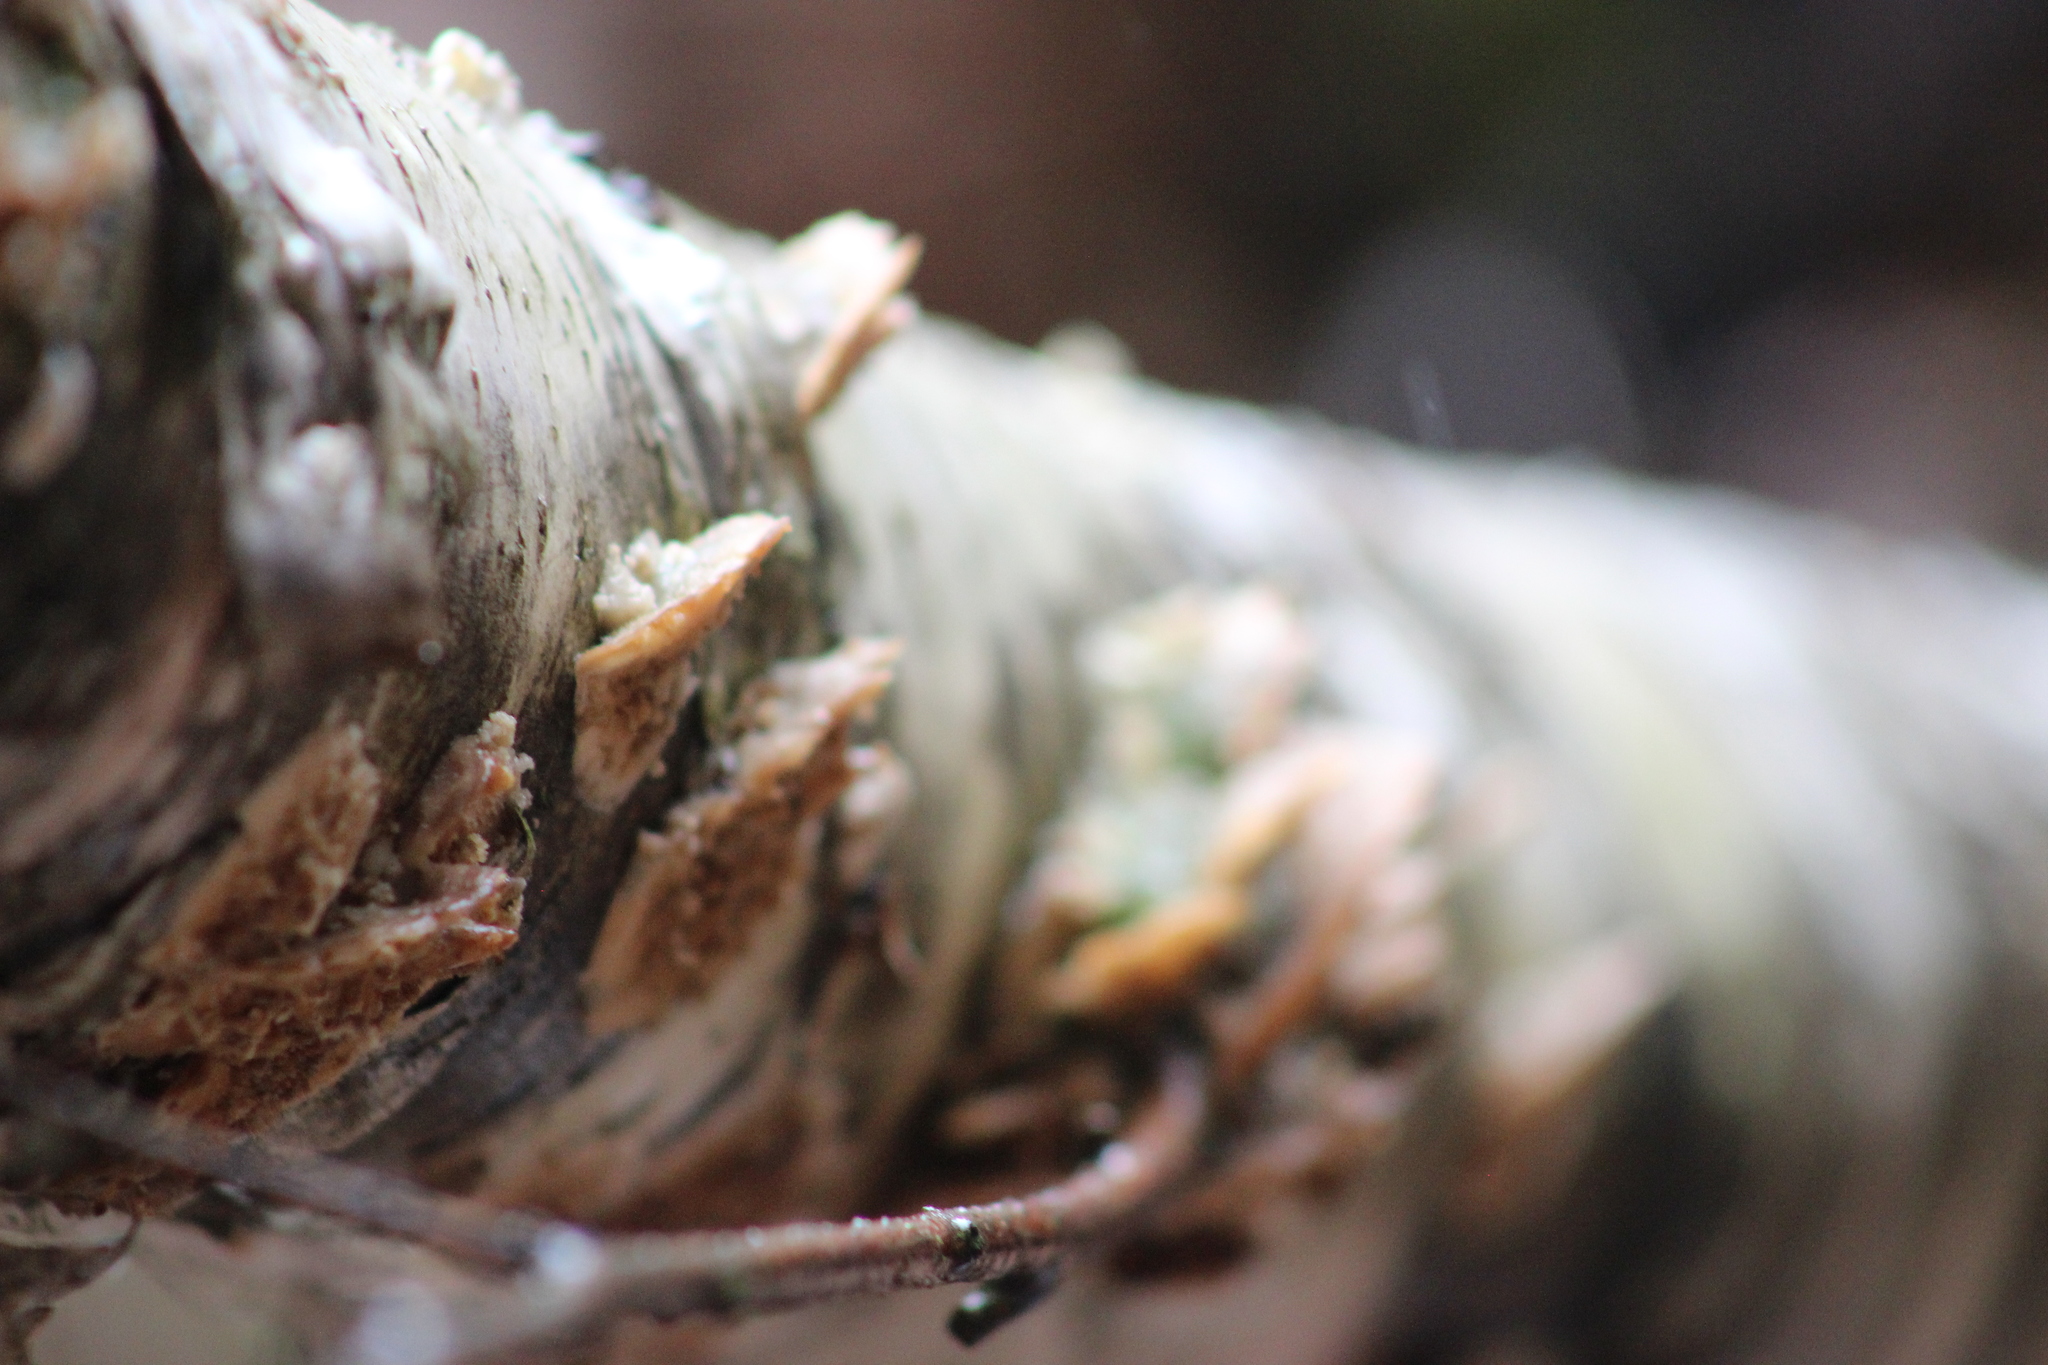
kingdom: Fungi
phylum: Basidiomycota
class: Agaricomycetes
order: Hymenochaetales
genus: Trichaptum
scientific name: Trichaptum biforme
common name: Violet-toothed polypore
